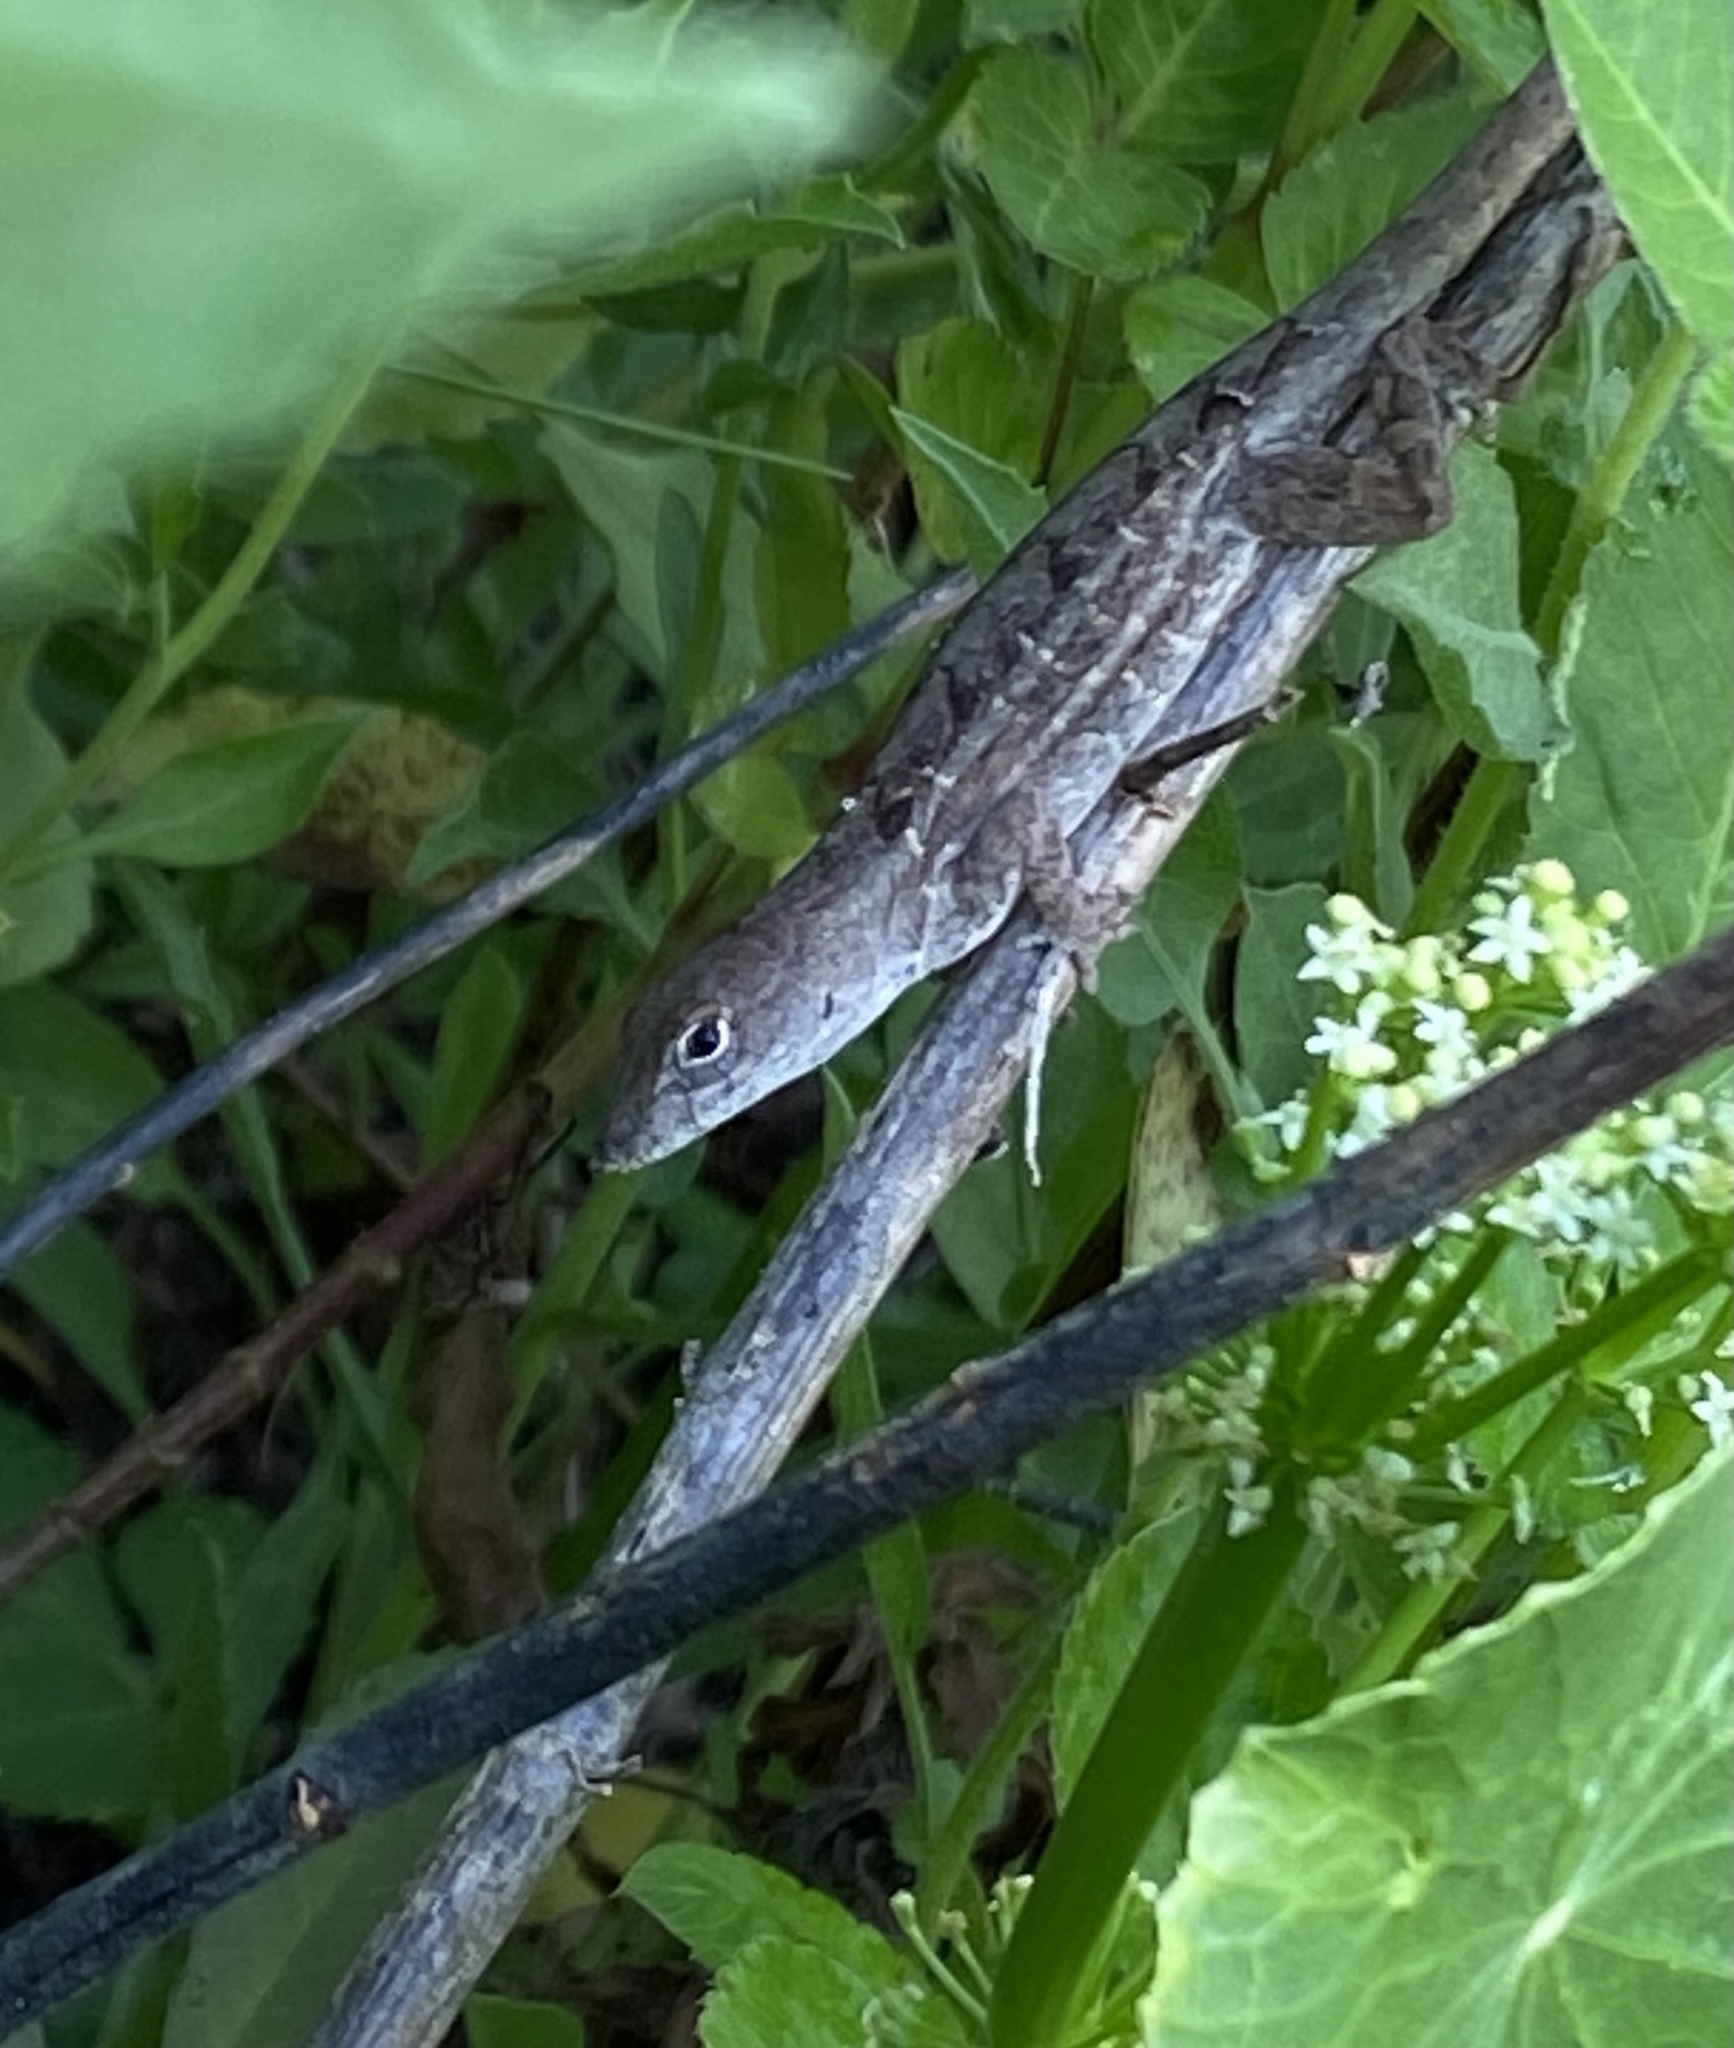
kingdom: Animalia
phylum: Chordata
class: Squamata
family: Dactyloidae
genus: Anolis
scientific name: Anolis sagrei
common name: Brown anole
